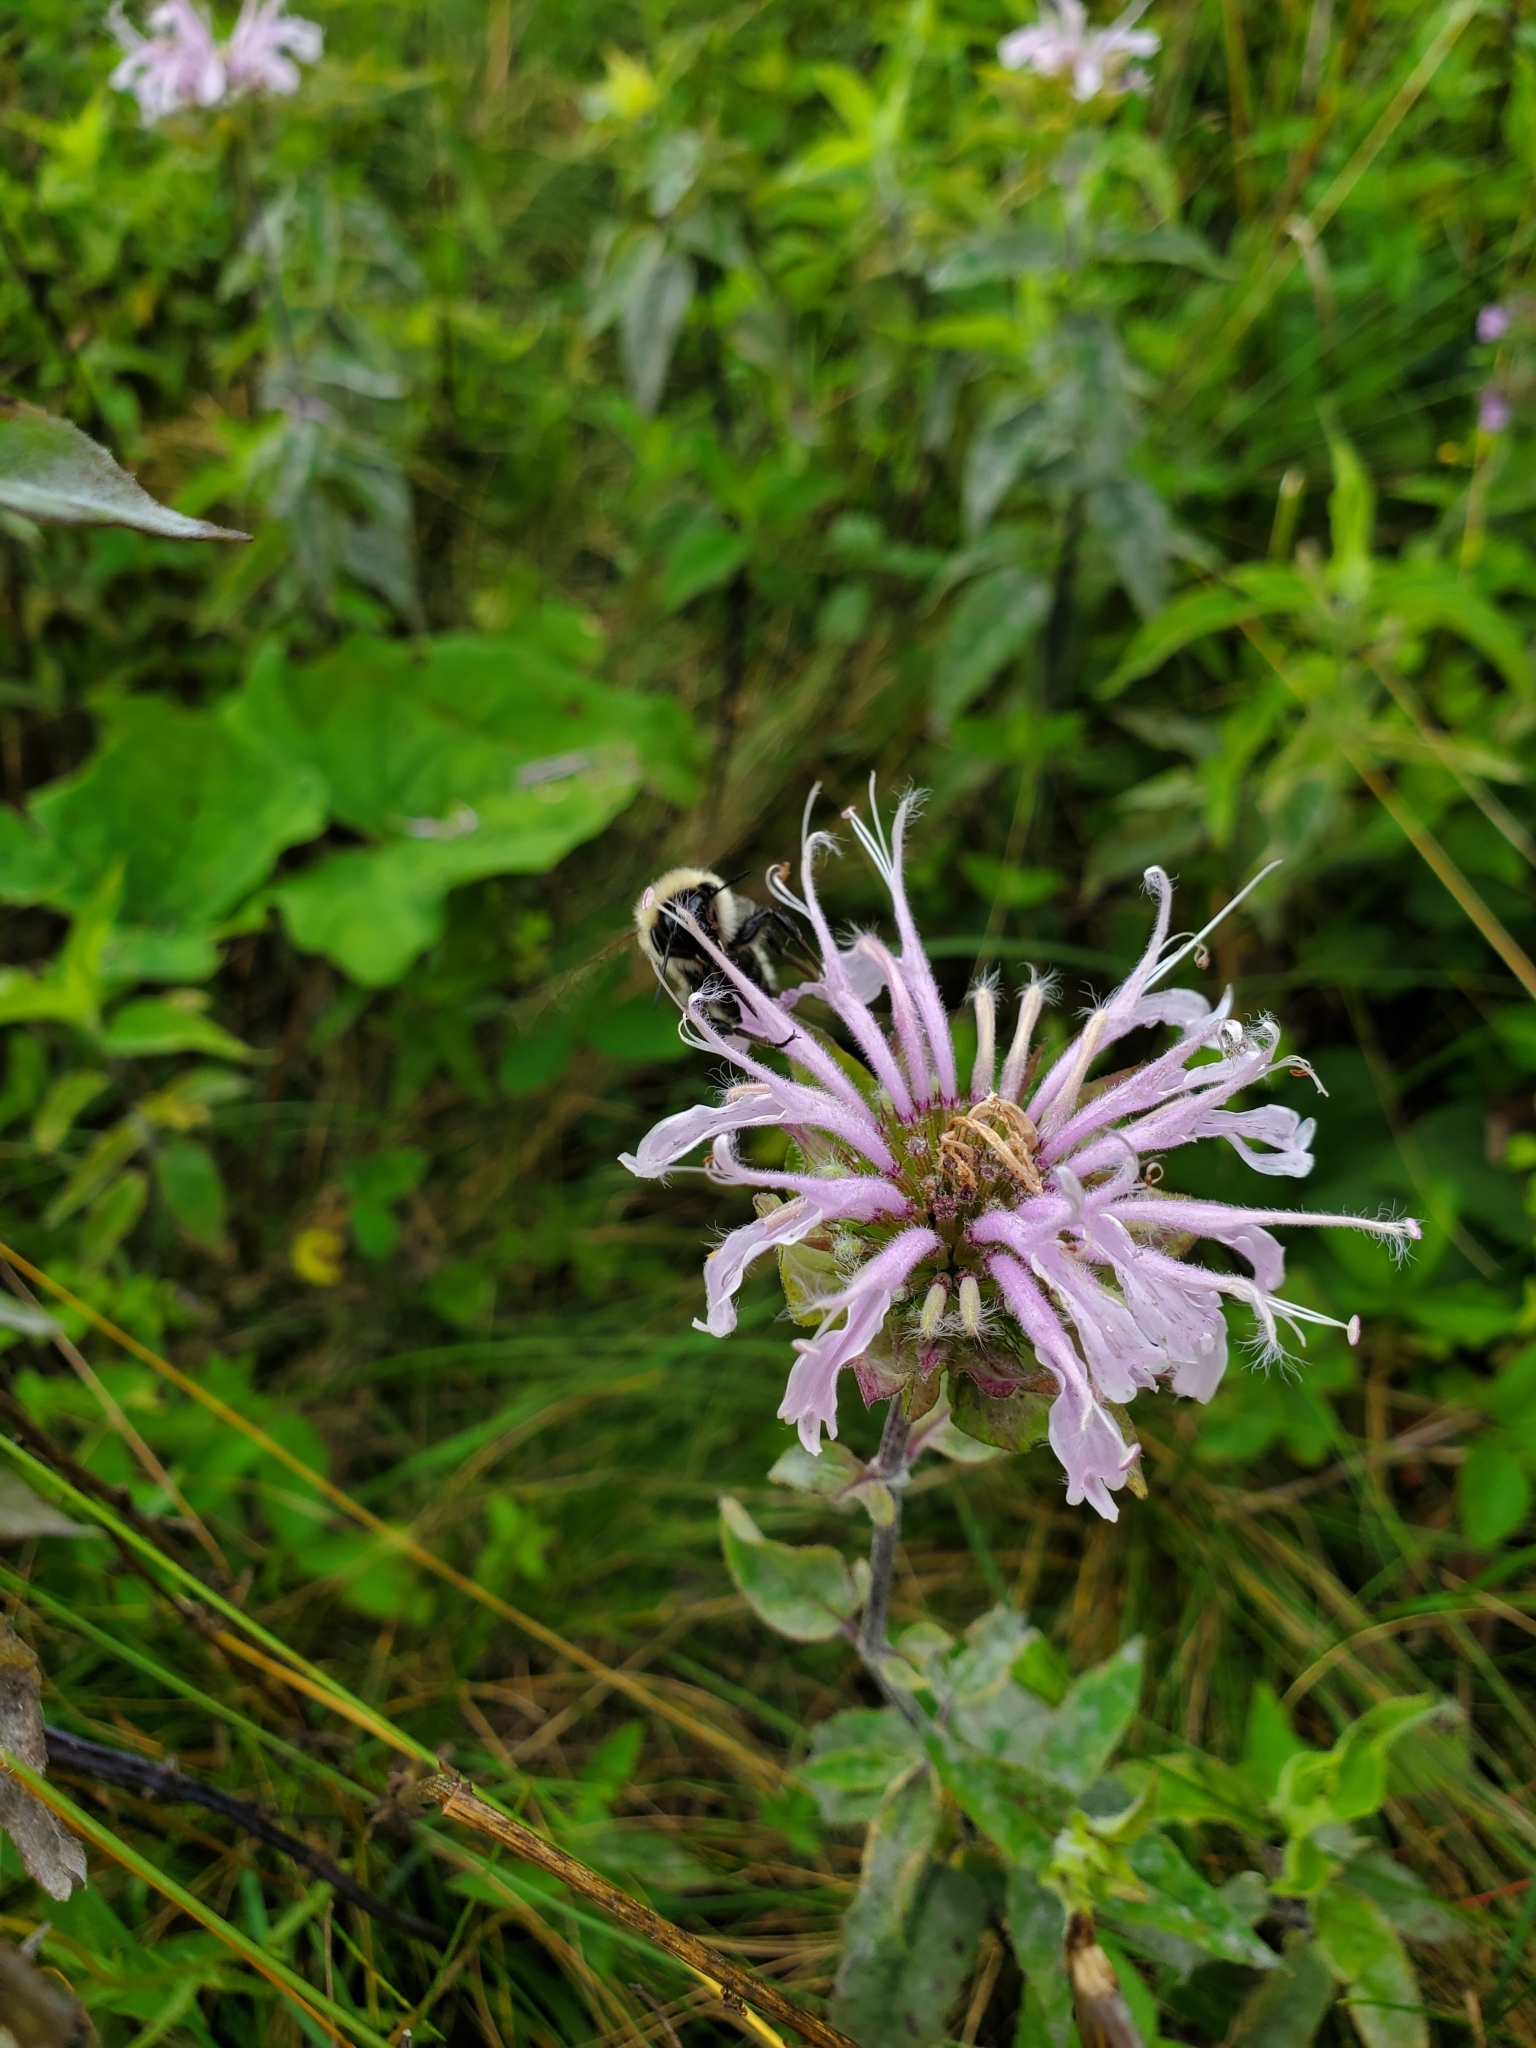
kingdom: Plantae
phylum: Tracheophyta
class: Magnoliopsida
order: Lamiales
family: Lamiaceae
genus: Monarda
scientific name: Monarda fistulosa
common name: Purple beebalm
